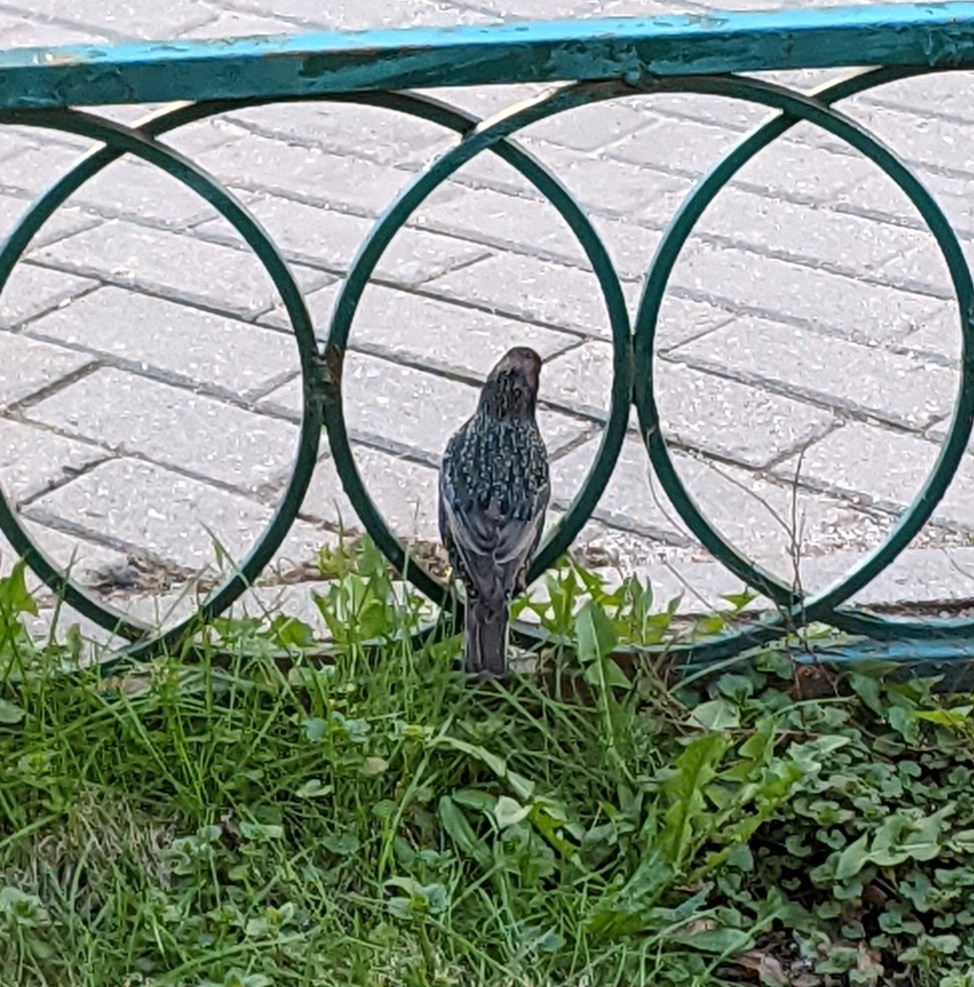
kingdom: Animalia
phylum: Chordata
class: Aves
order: Passeriformes
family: Sturnidae
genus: Sturnus
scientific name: Sturnus vulgaris
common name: Common starling
